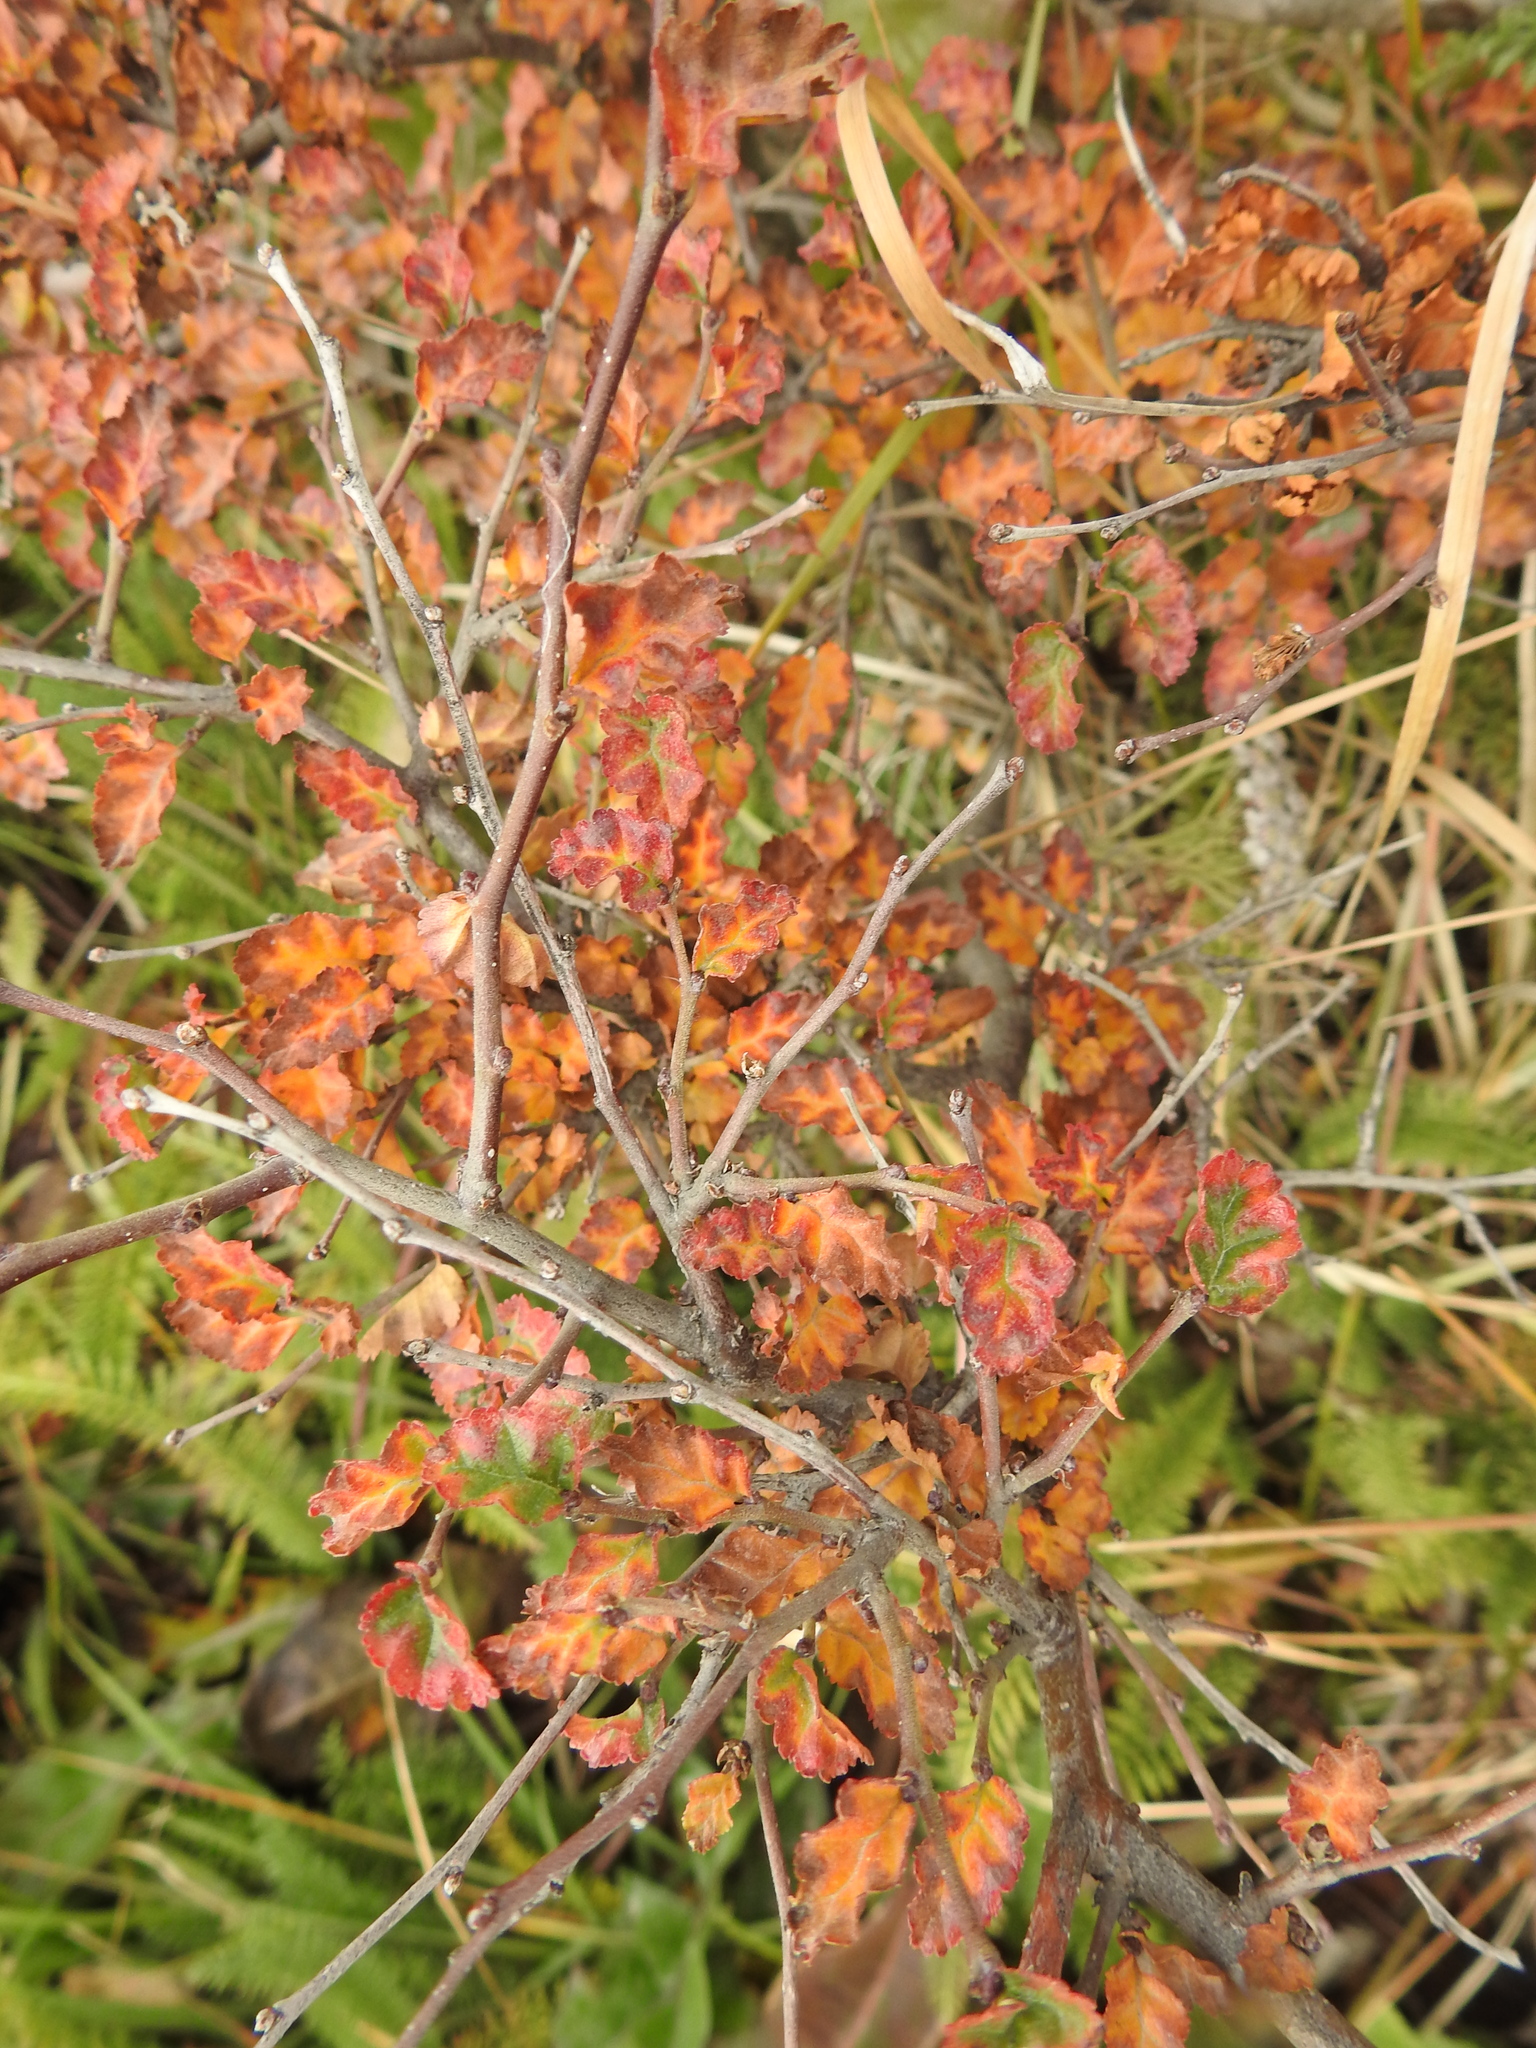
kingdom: Plantae
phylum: Tracheophyta
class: Magnoliopsida
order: Fagales
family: Nothofagaceae
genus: Nothofagus
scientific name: Nothofagus antarctica
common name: Antarctic beech
